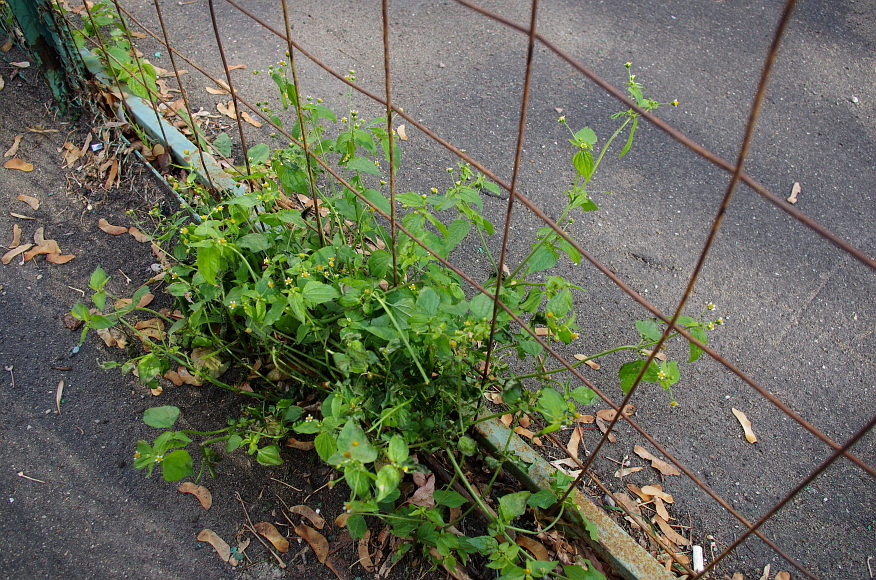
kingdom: Plantae
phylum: Tracheophyta
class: Magnoliopsida
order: Asterales
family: Asteraceae
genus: Galinsoga
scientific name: Galinsoga parviflora
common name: Gallant soldier
